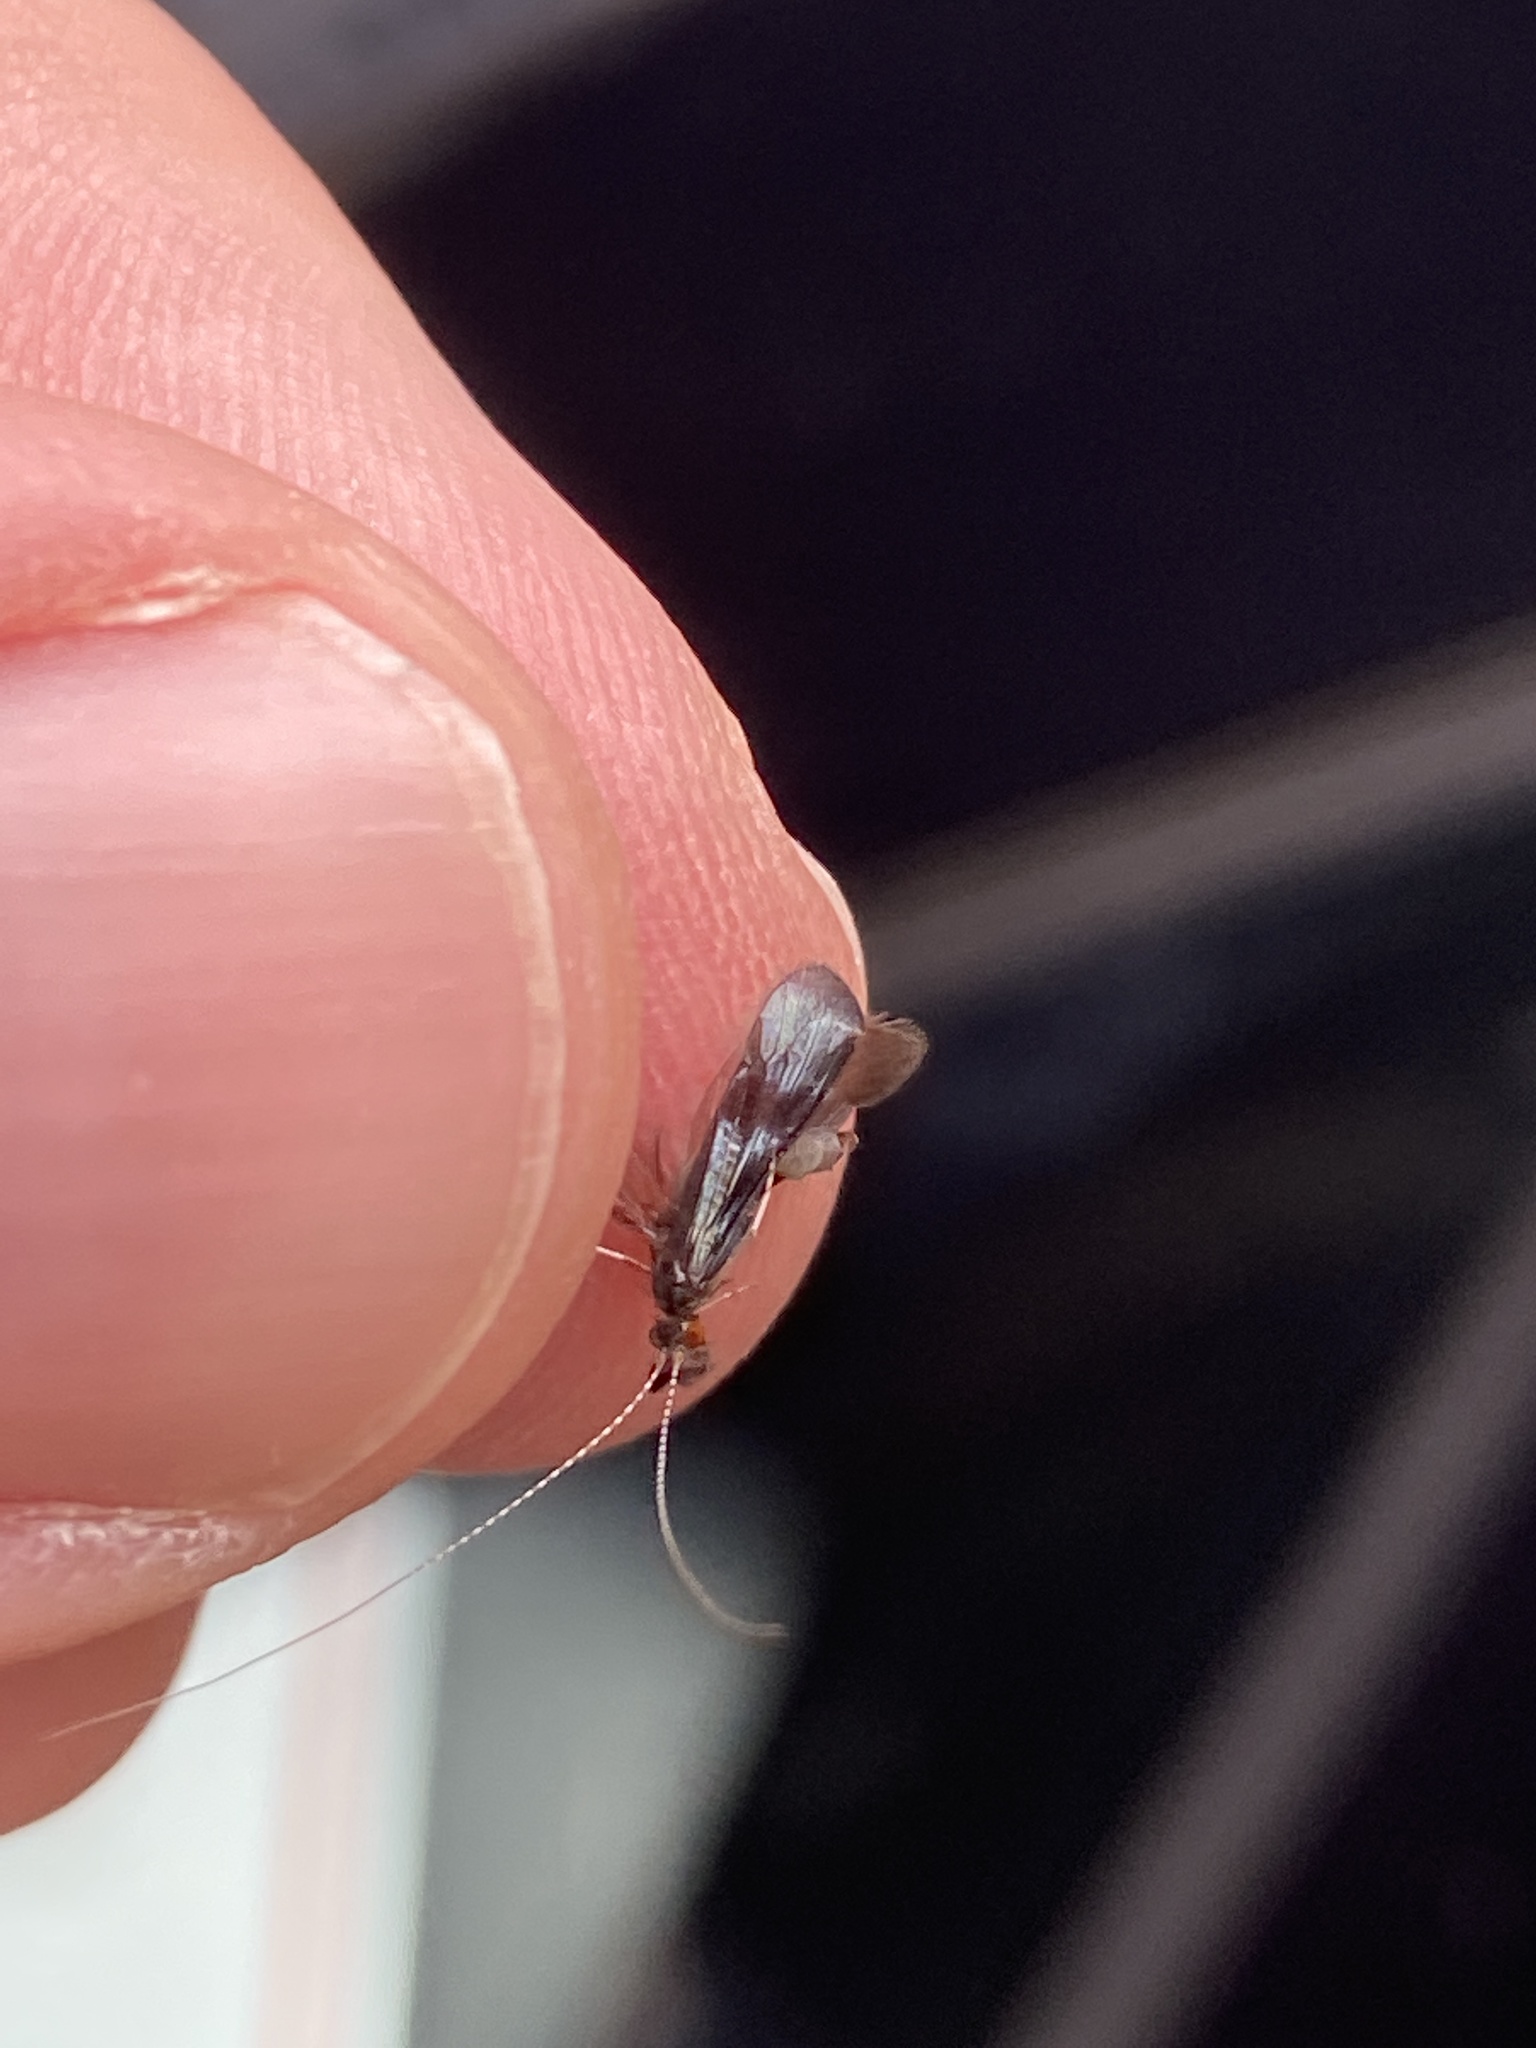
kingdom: Animalia
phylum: Arthropoda
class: Insecta
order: Trichoptera
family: Leptoceridae
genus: Mystacides
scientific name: Mystacides azureus
